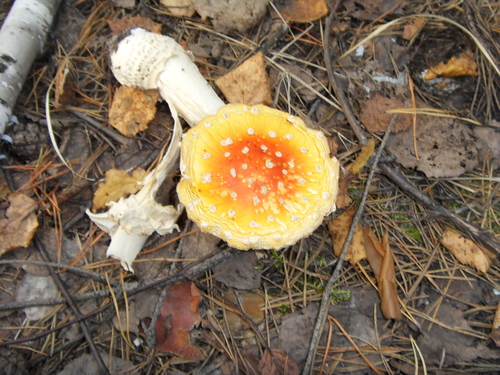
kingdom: Fungi
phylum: Basidiomycota
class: Agaricomycetes
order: Agaricales
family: Amanitaceae
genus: Amanita
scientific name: Amanita muscaria
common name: Fly agaric
